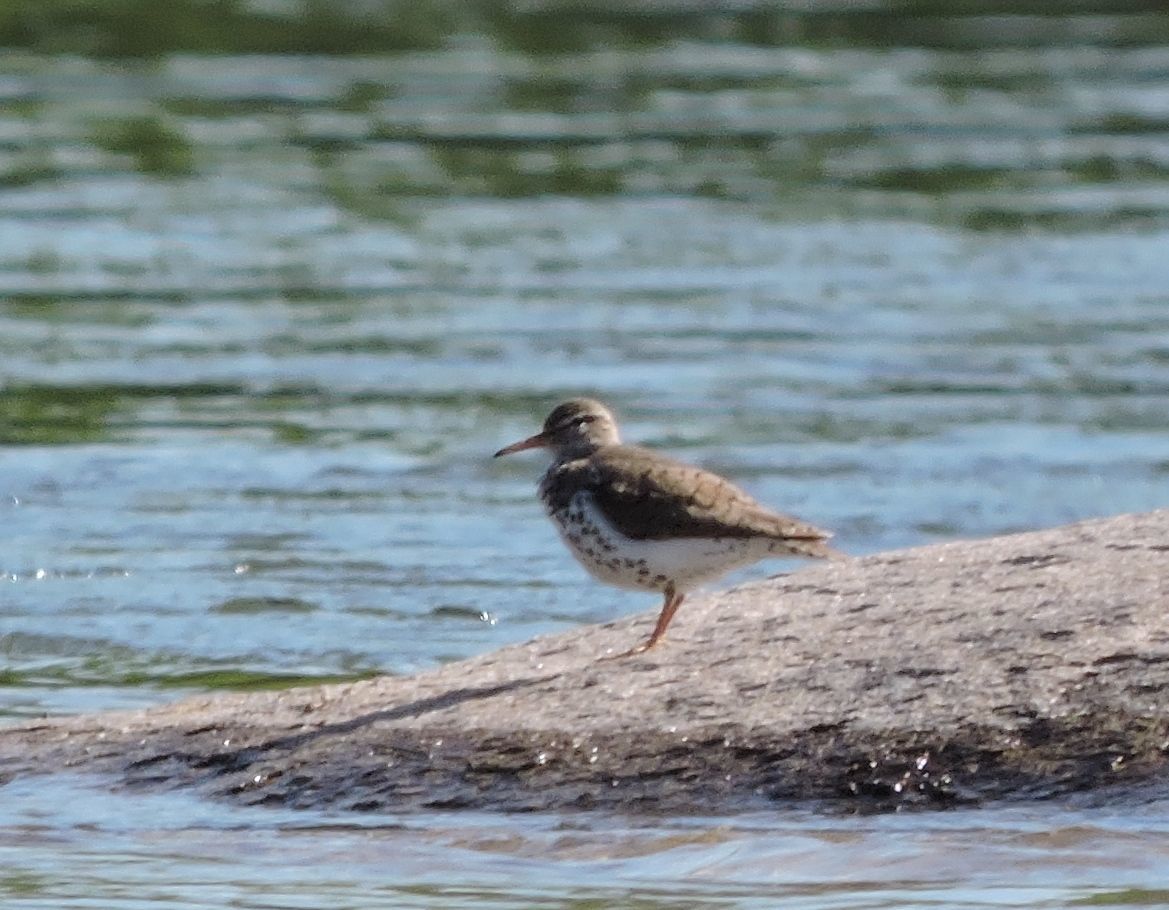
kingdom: Animalia
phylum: Chordata
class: Aves
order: Charadriiformes
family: Scolopacidae
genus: Actitis
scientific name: Actitis macularius
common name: Spotted sandpiper
